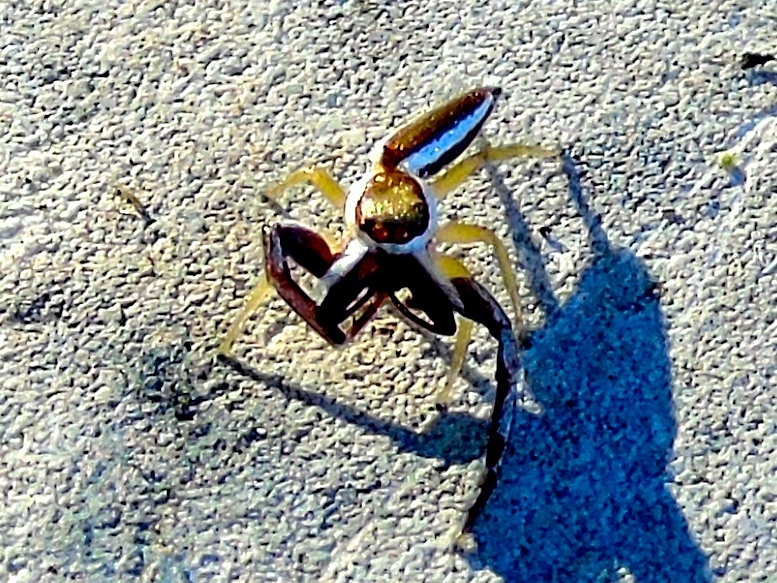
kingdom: Animalia
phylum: Arthropoda
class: Arachnida
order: Araneae
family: Salticidae
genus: Hentzia
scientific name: Hentzia palmarum
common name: Common hentz jumping spider
